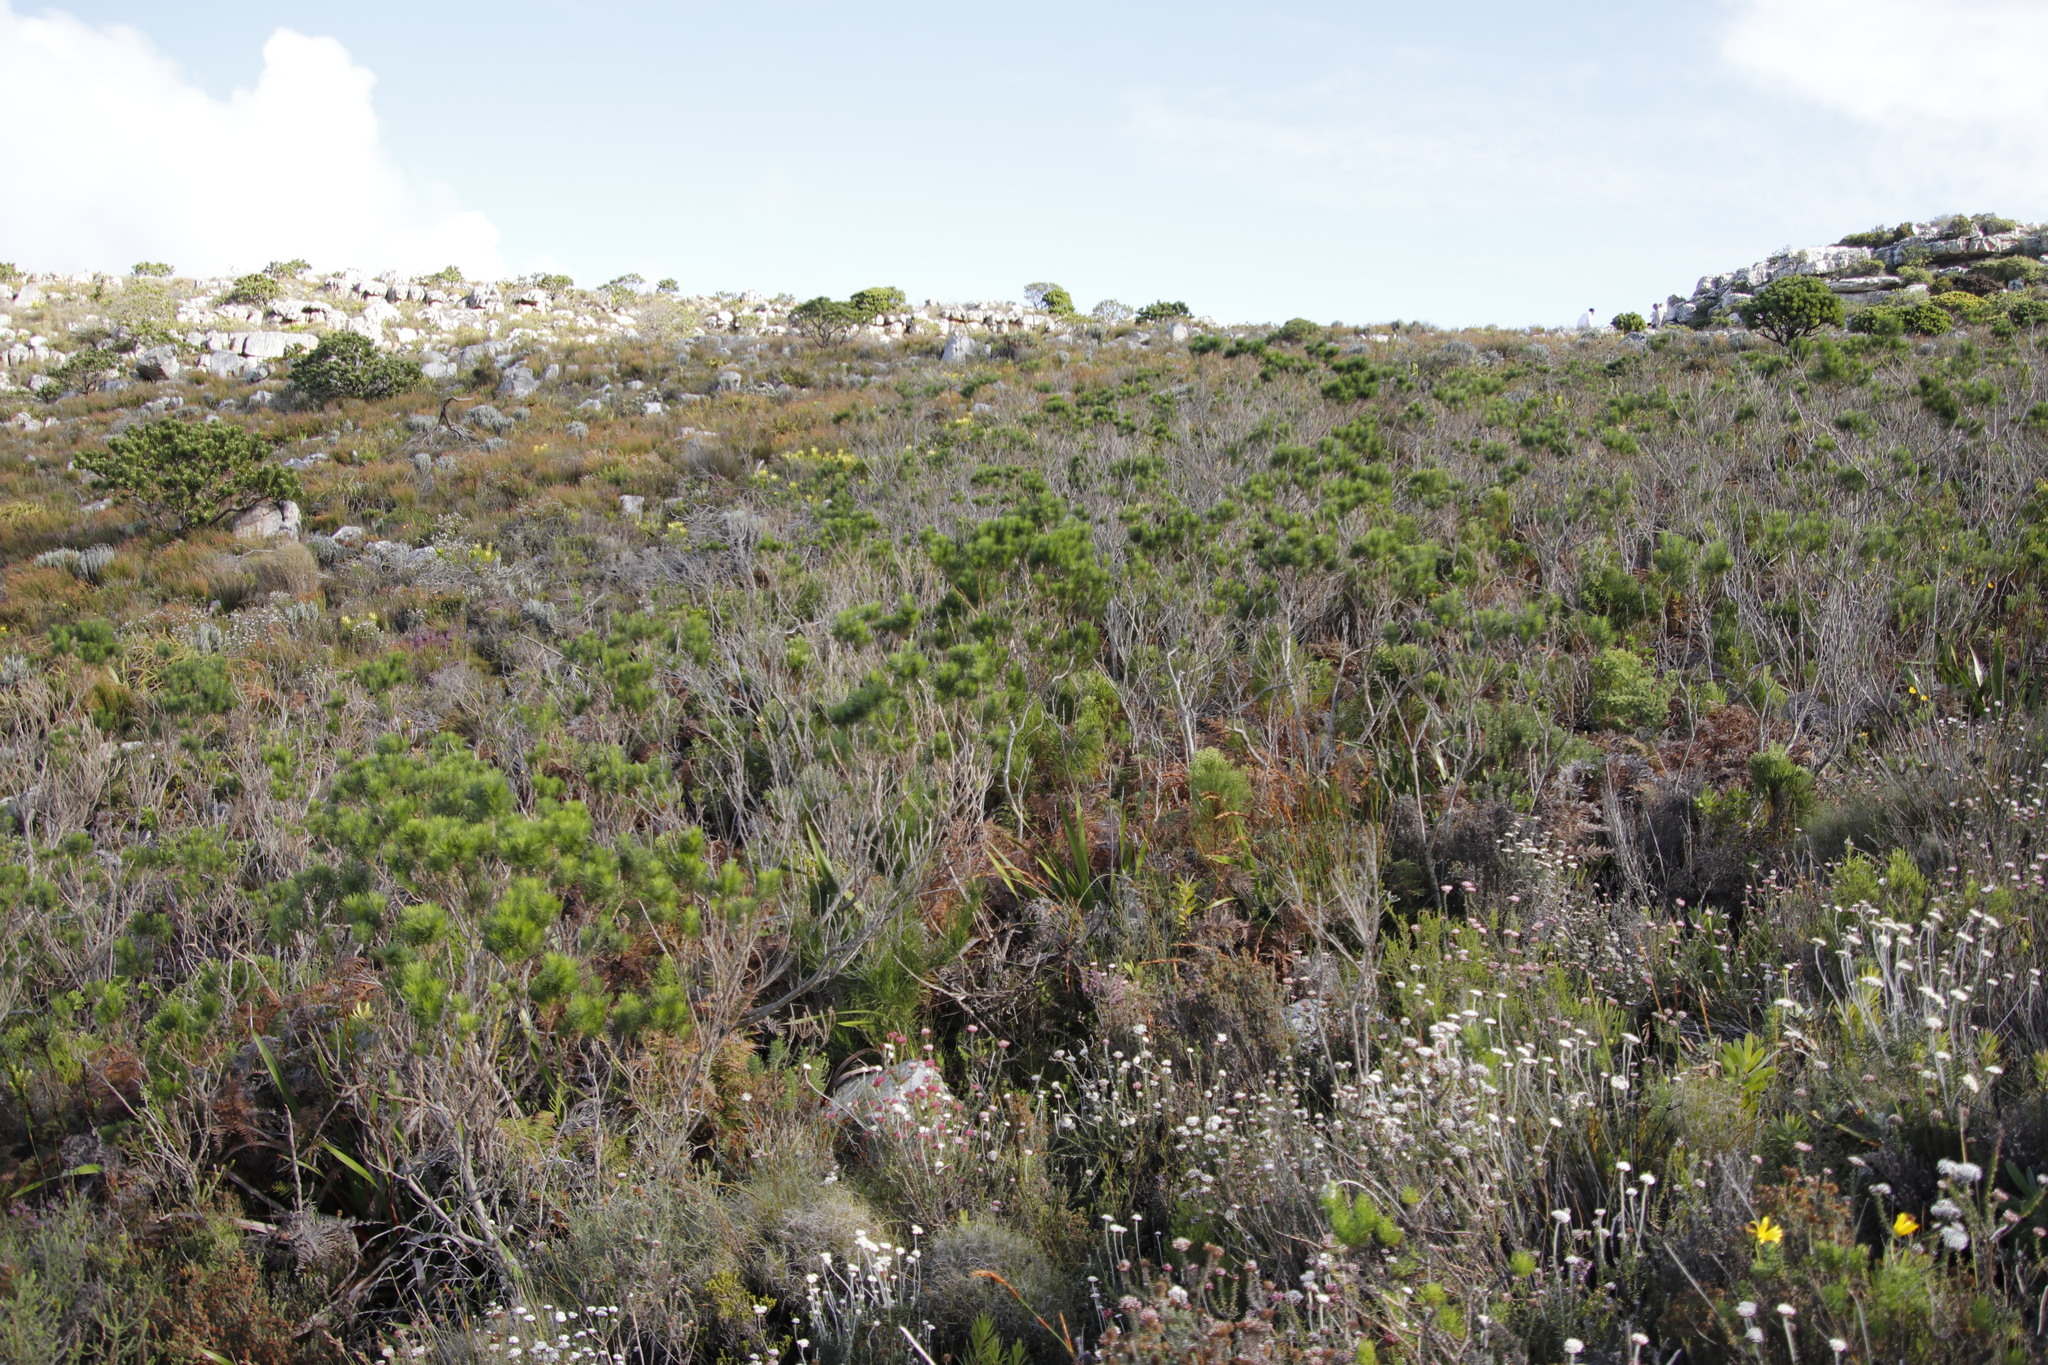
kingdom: Plantae
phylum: Tracheophyta
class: Magnoliopsida
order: Fabales
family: Fabaceae
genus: Psoralea
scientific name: Psoralea pinnata
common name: African scurfpea
